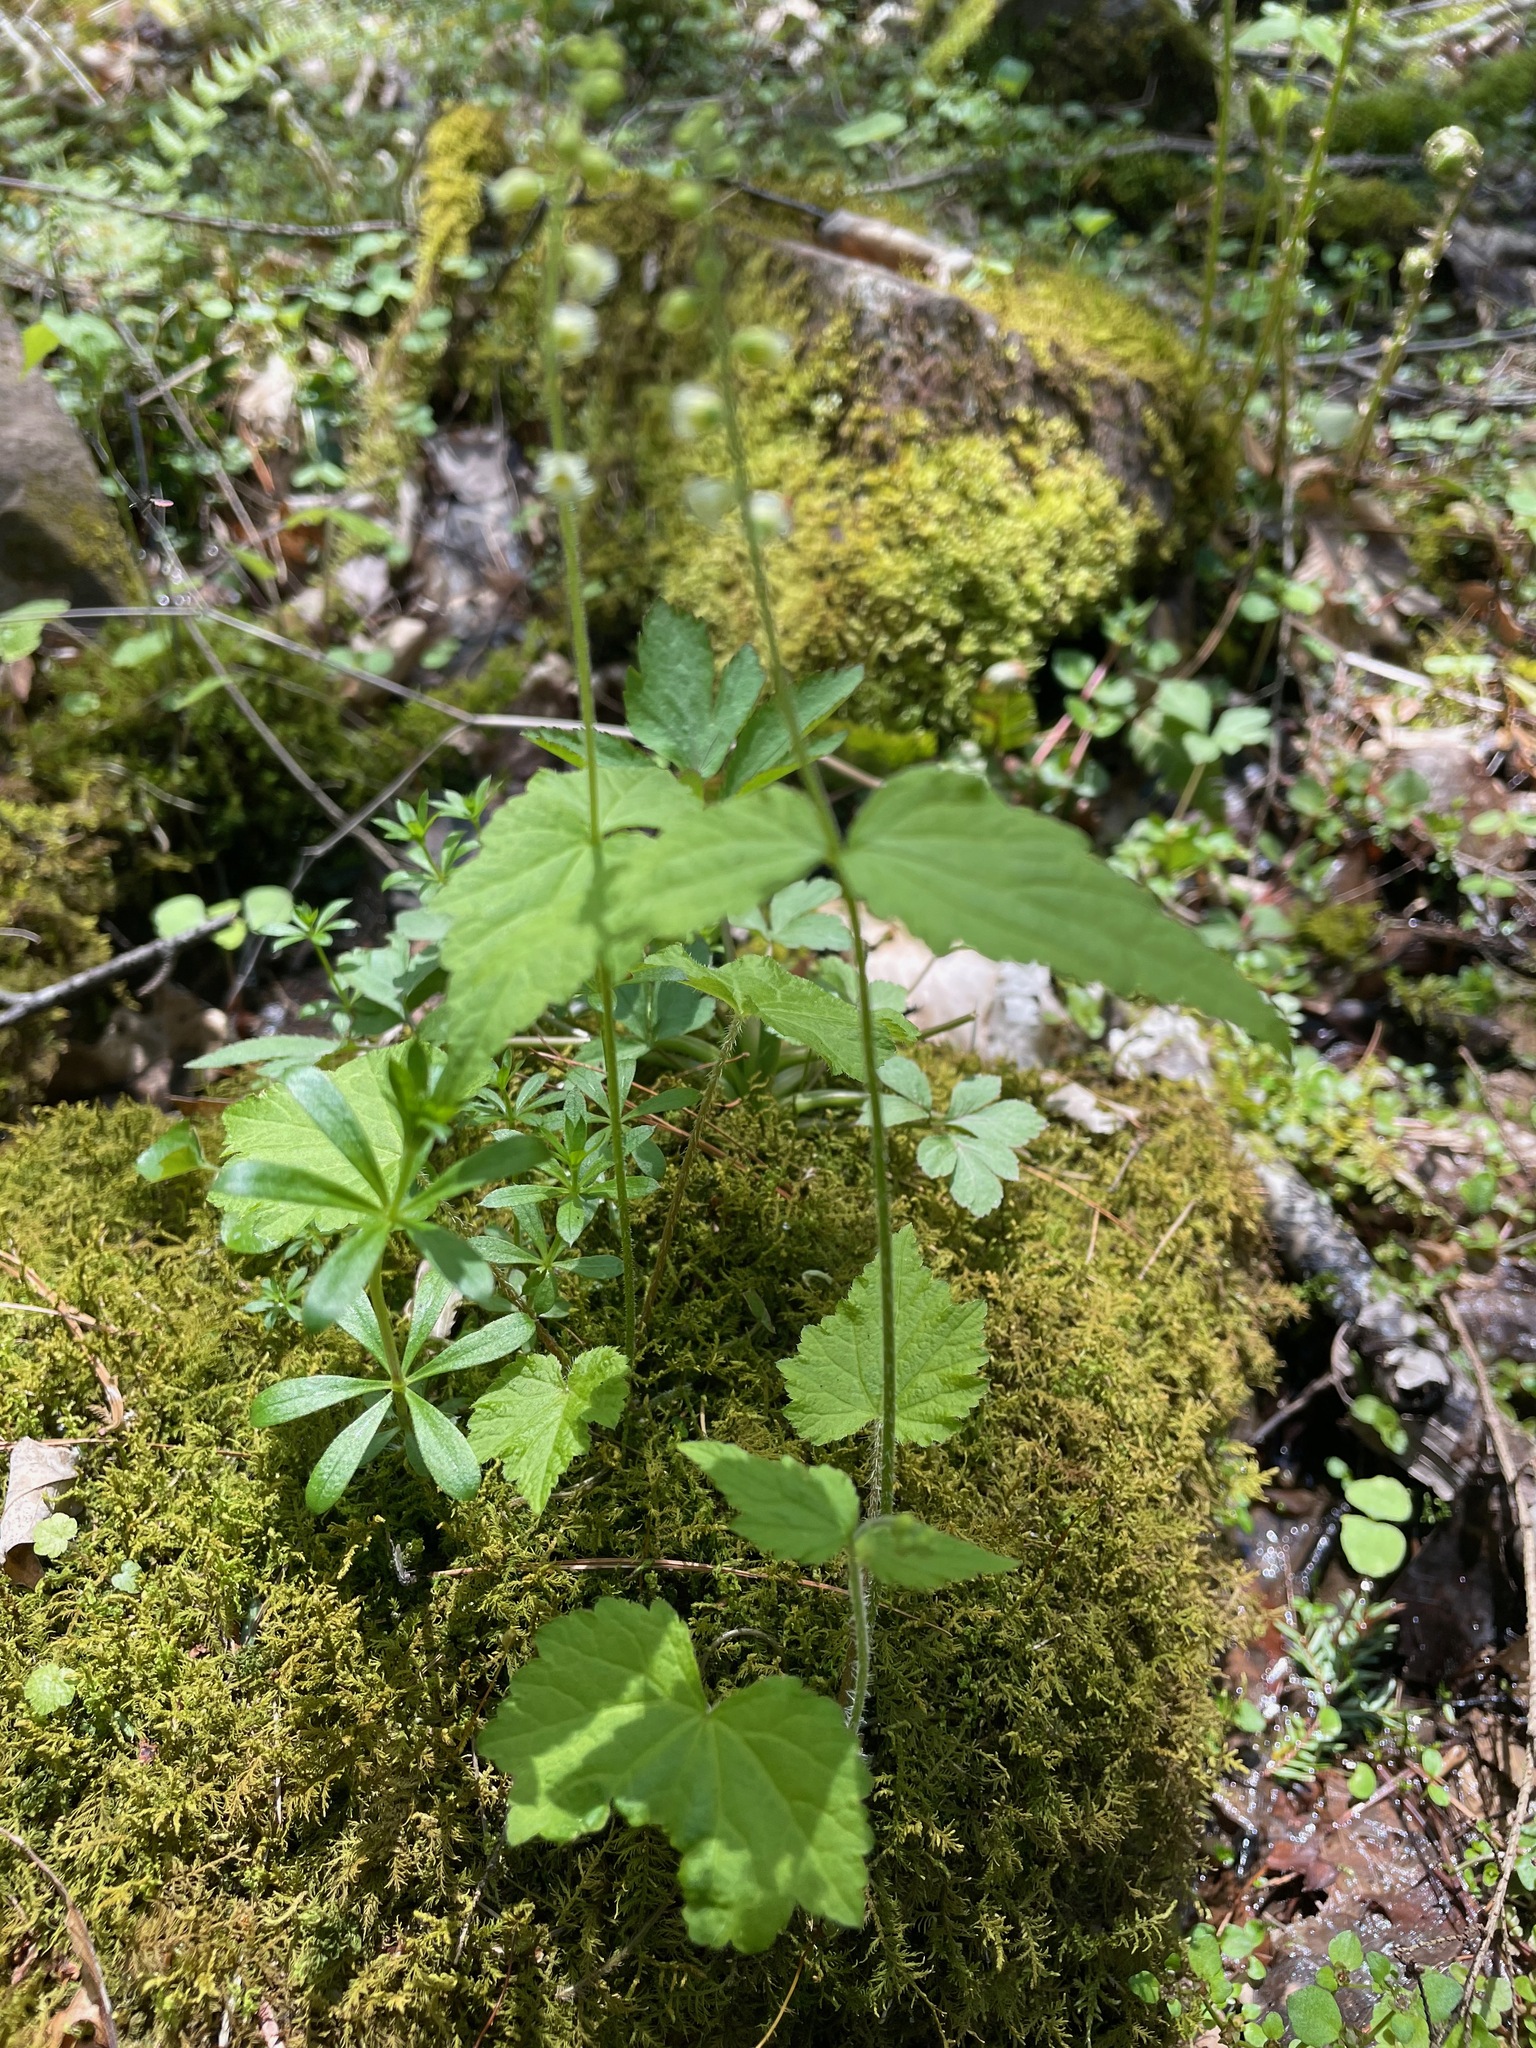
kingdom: Plantae
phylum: Tracheophyta
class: Magnoliopsida
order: Saxifragales
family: Saxifragaceae
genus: Mitella
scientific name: Mitella diphylla
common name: Coolwort
